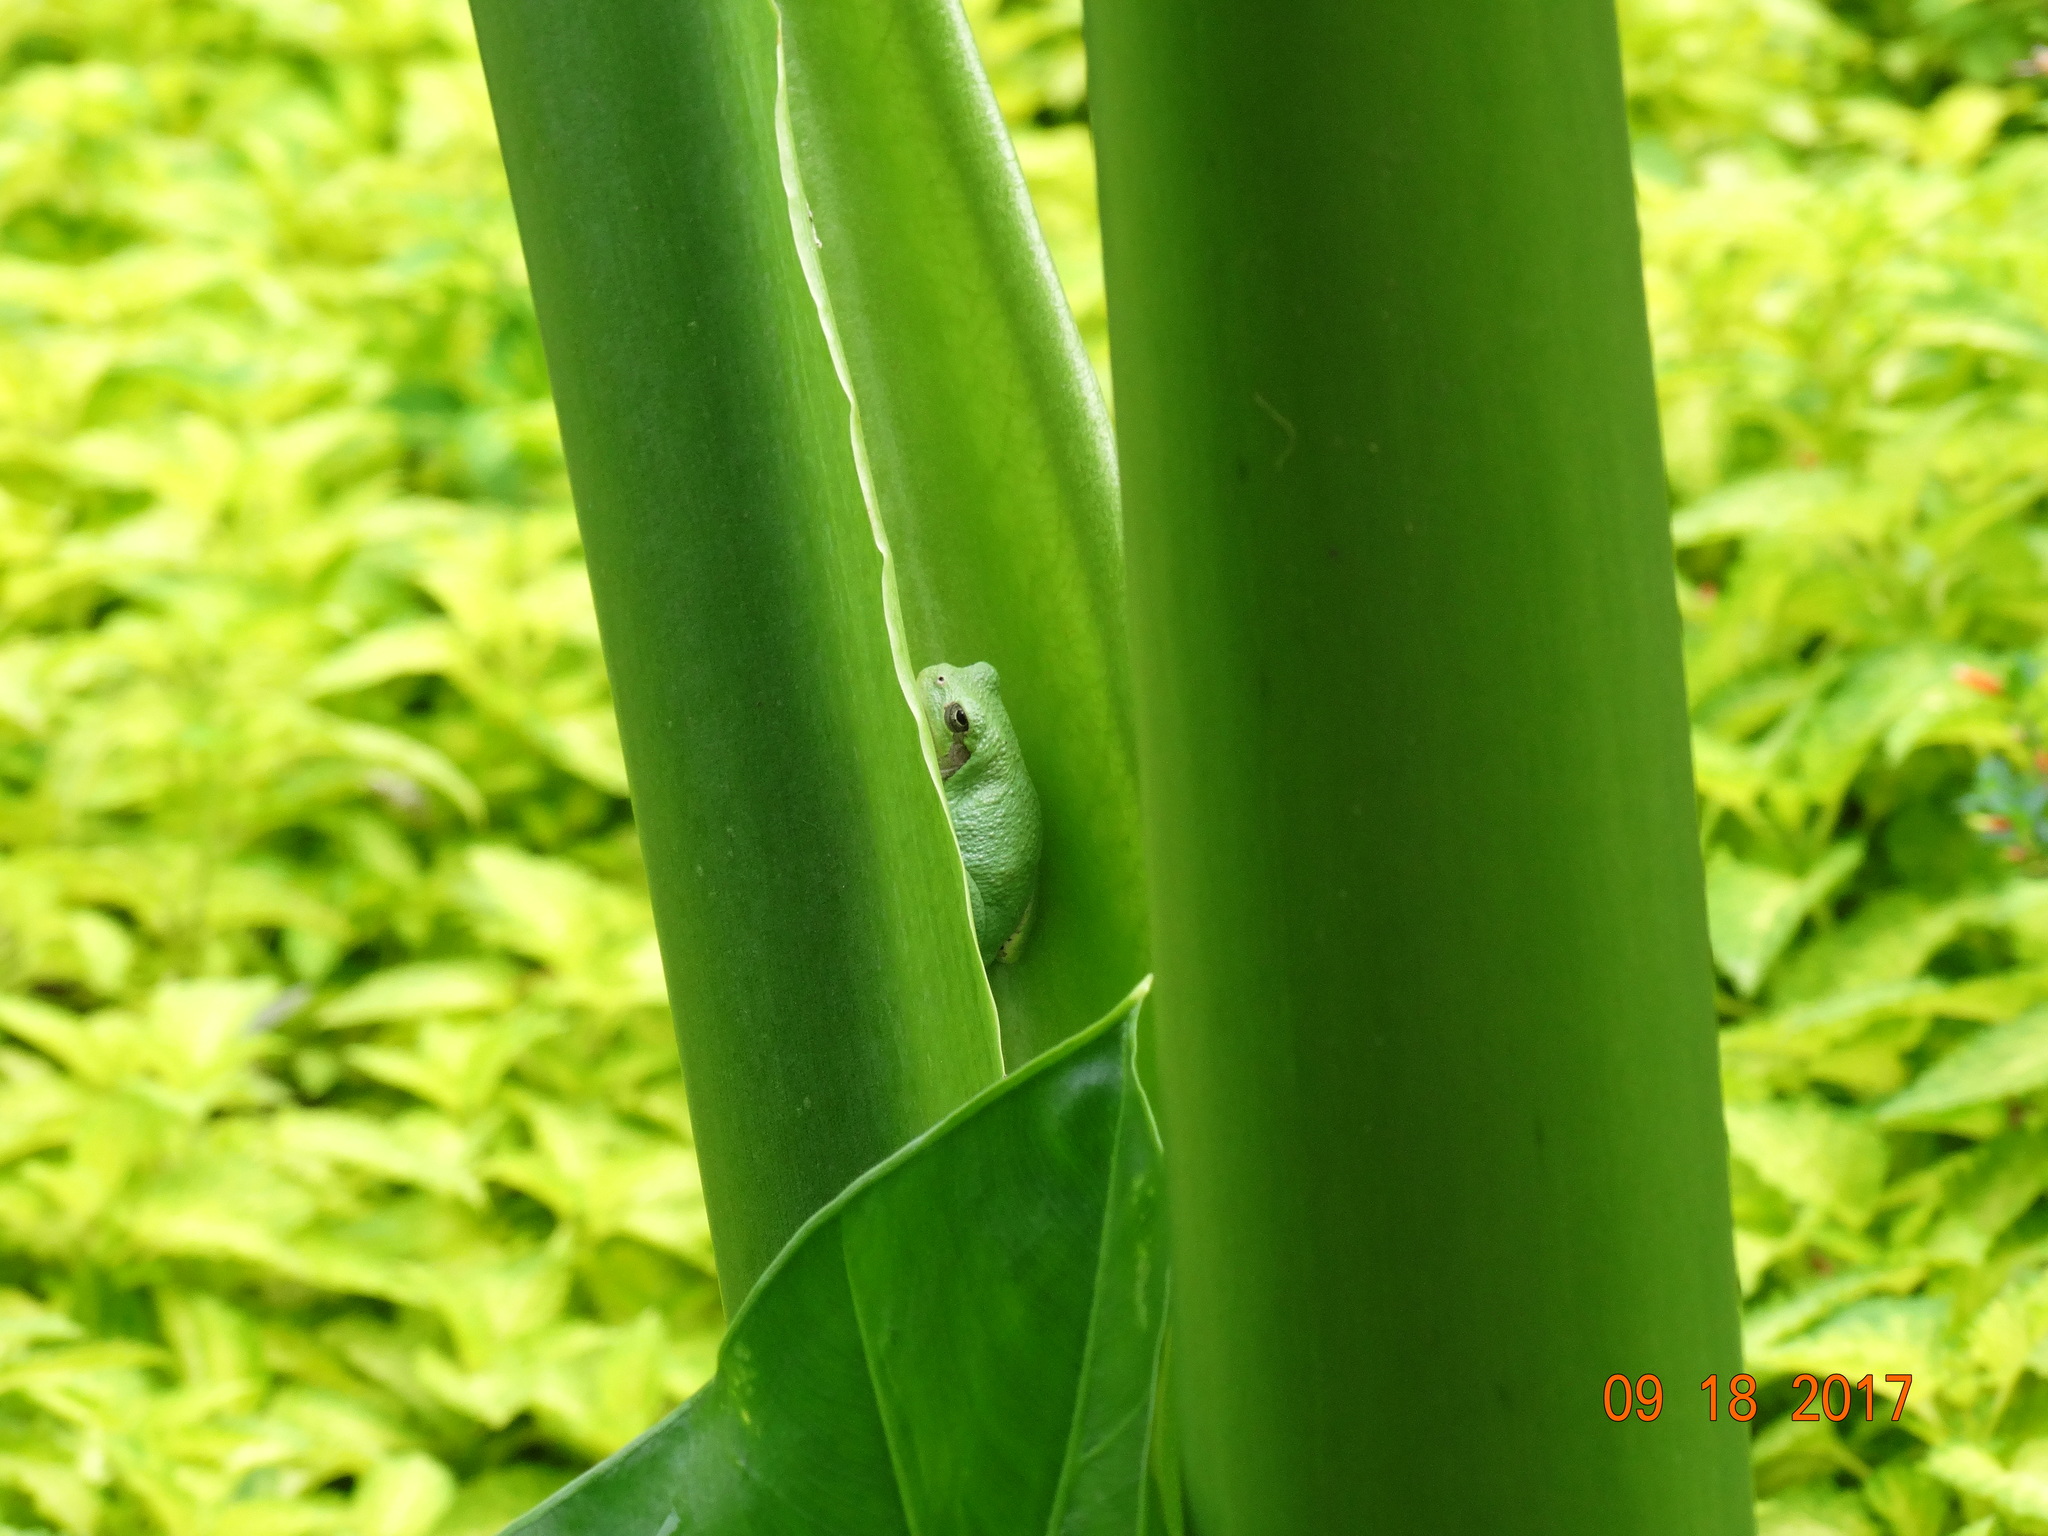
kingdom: Animalia
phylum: Chordata
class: Amphibia
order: Anura
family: Hylidae
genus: Hyla
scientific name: Hyla
